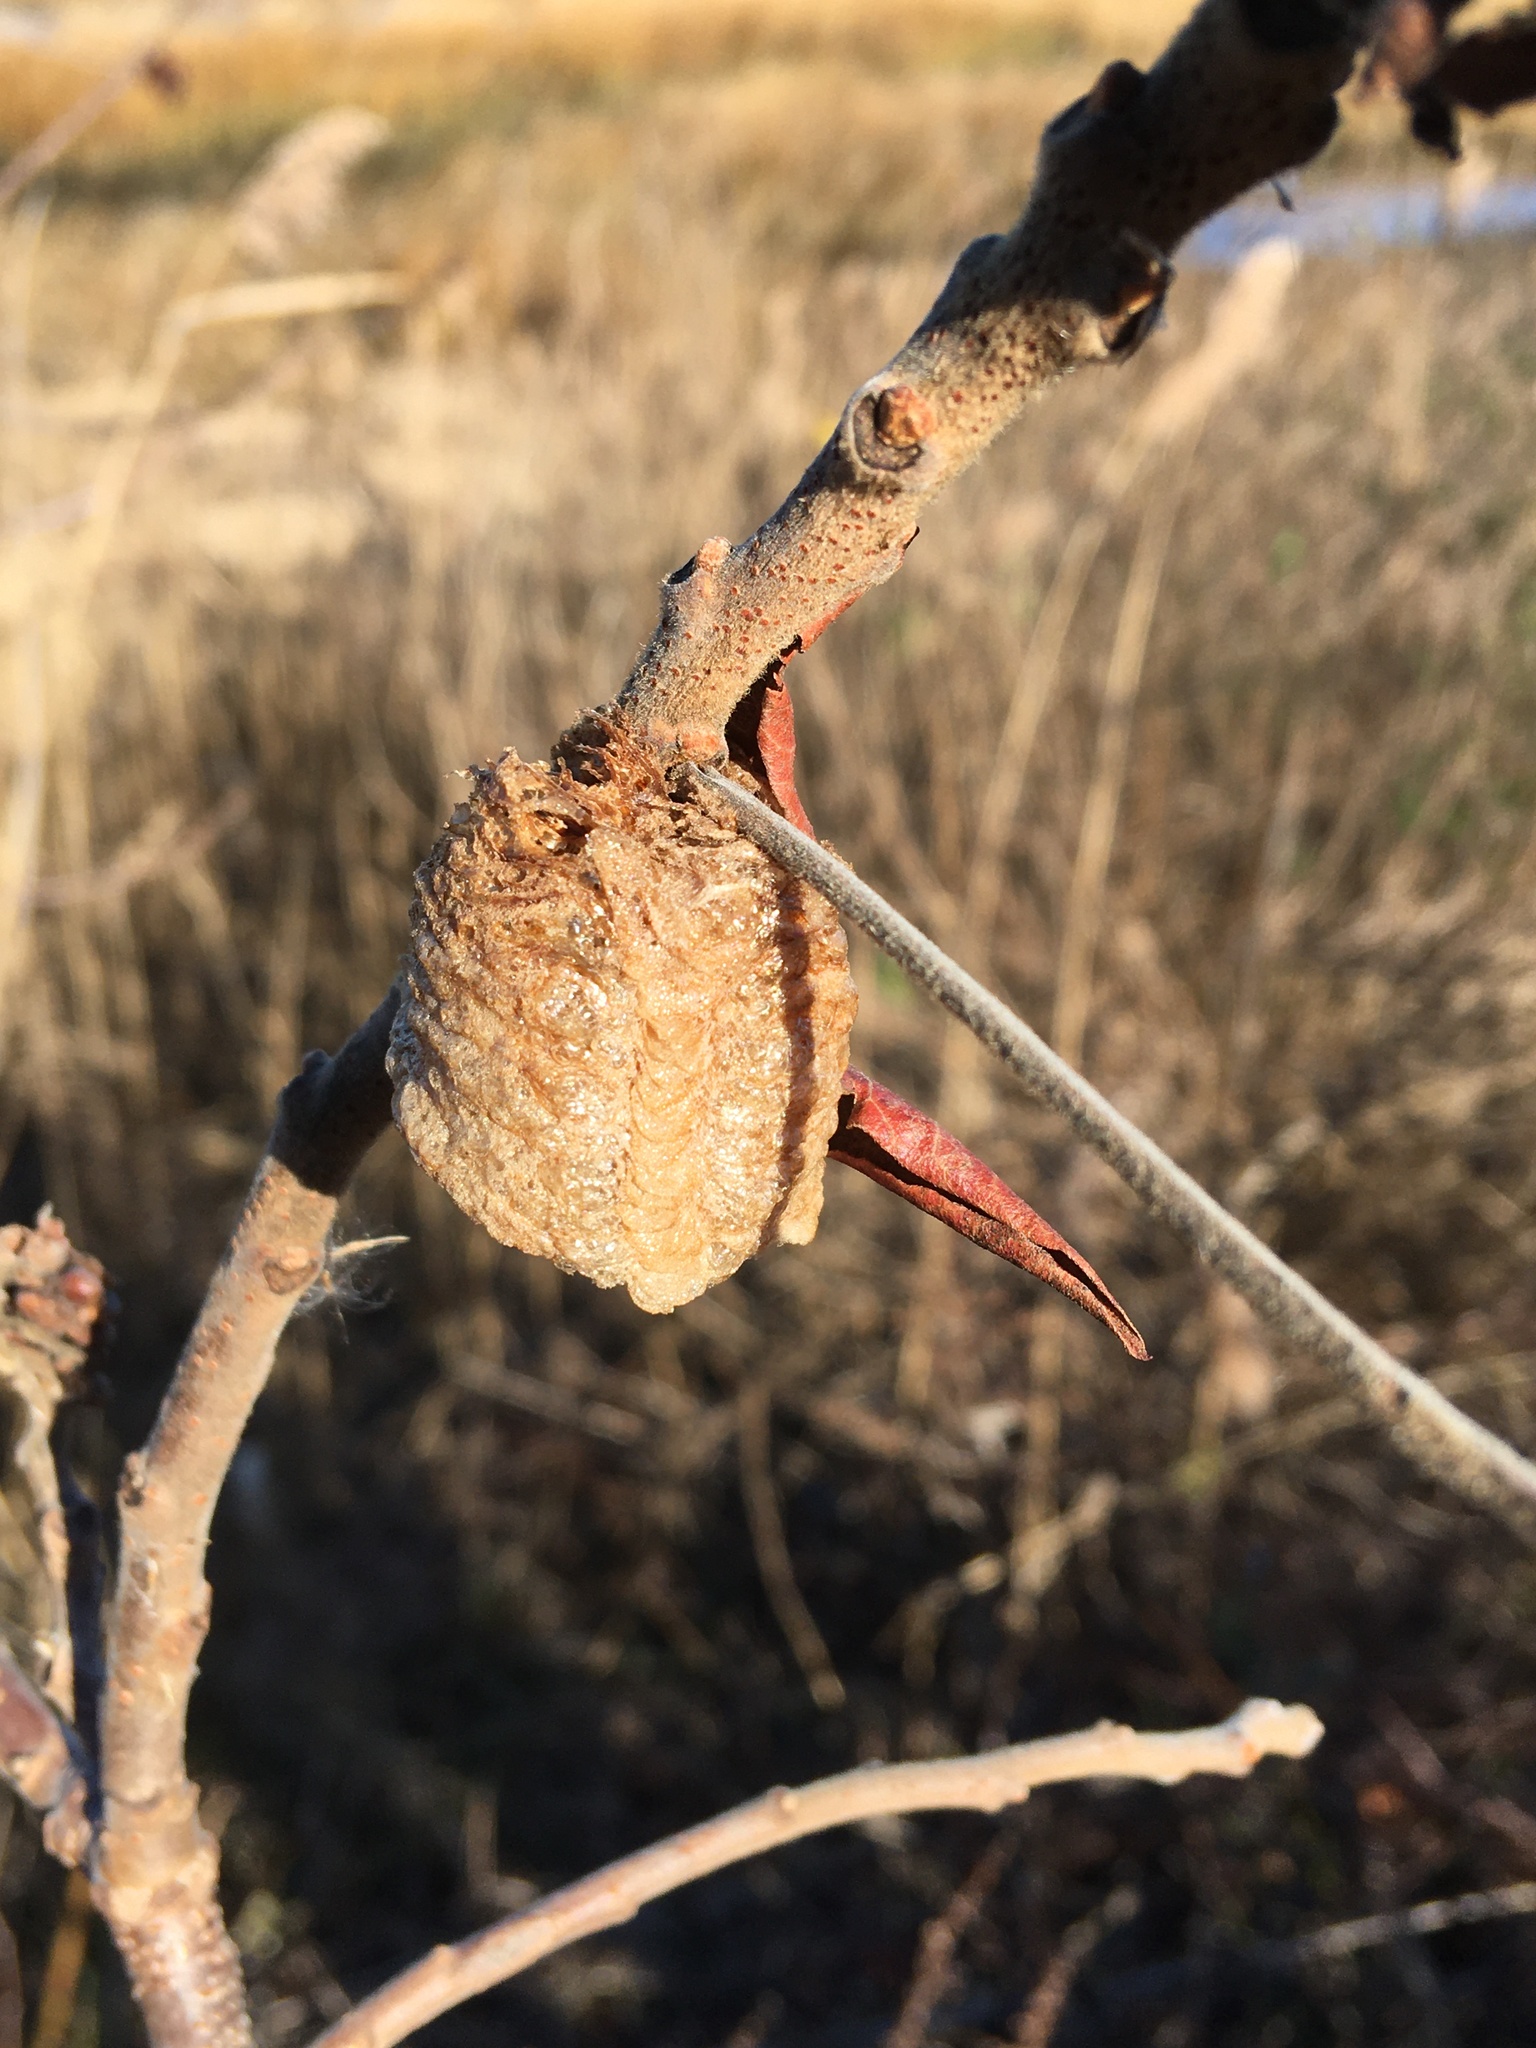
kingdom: Animalia
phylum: Arthropoda
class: Insecta
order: Mantodea
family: Mantidae
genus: Tenodera
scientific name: Tenodera sinensis
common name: Chinese mantis
